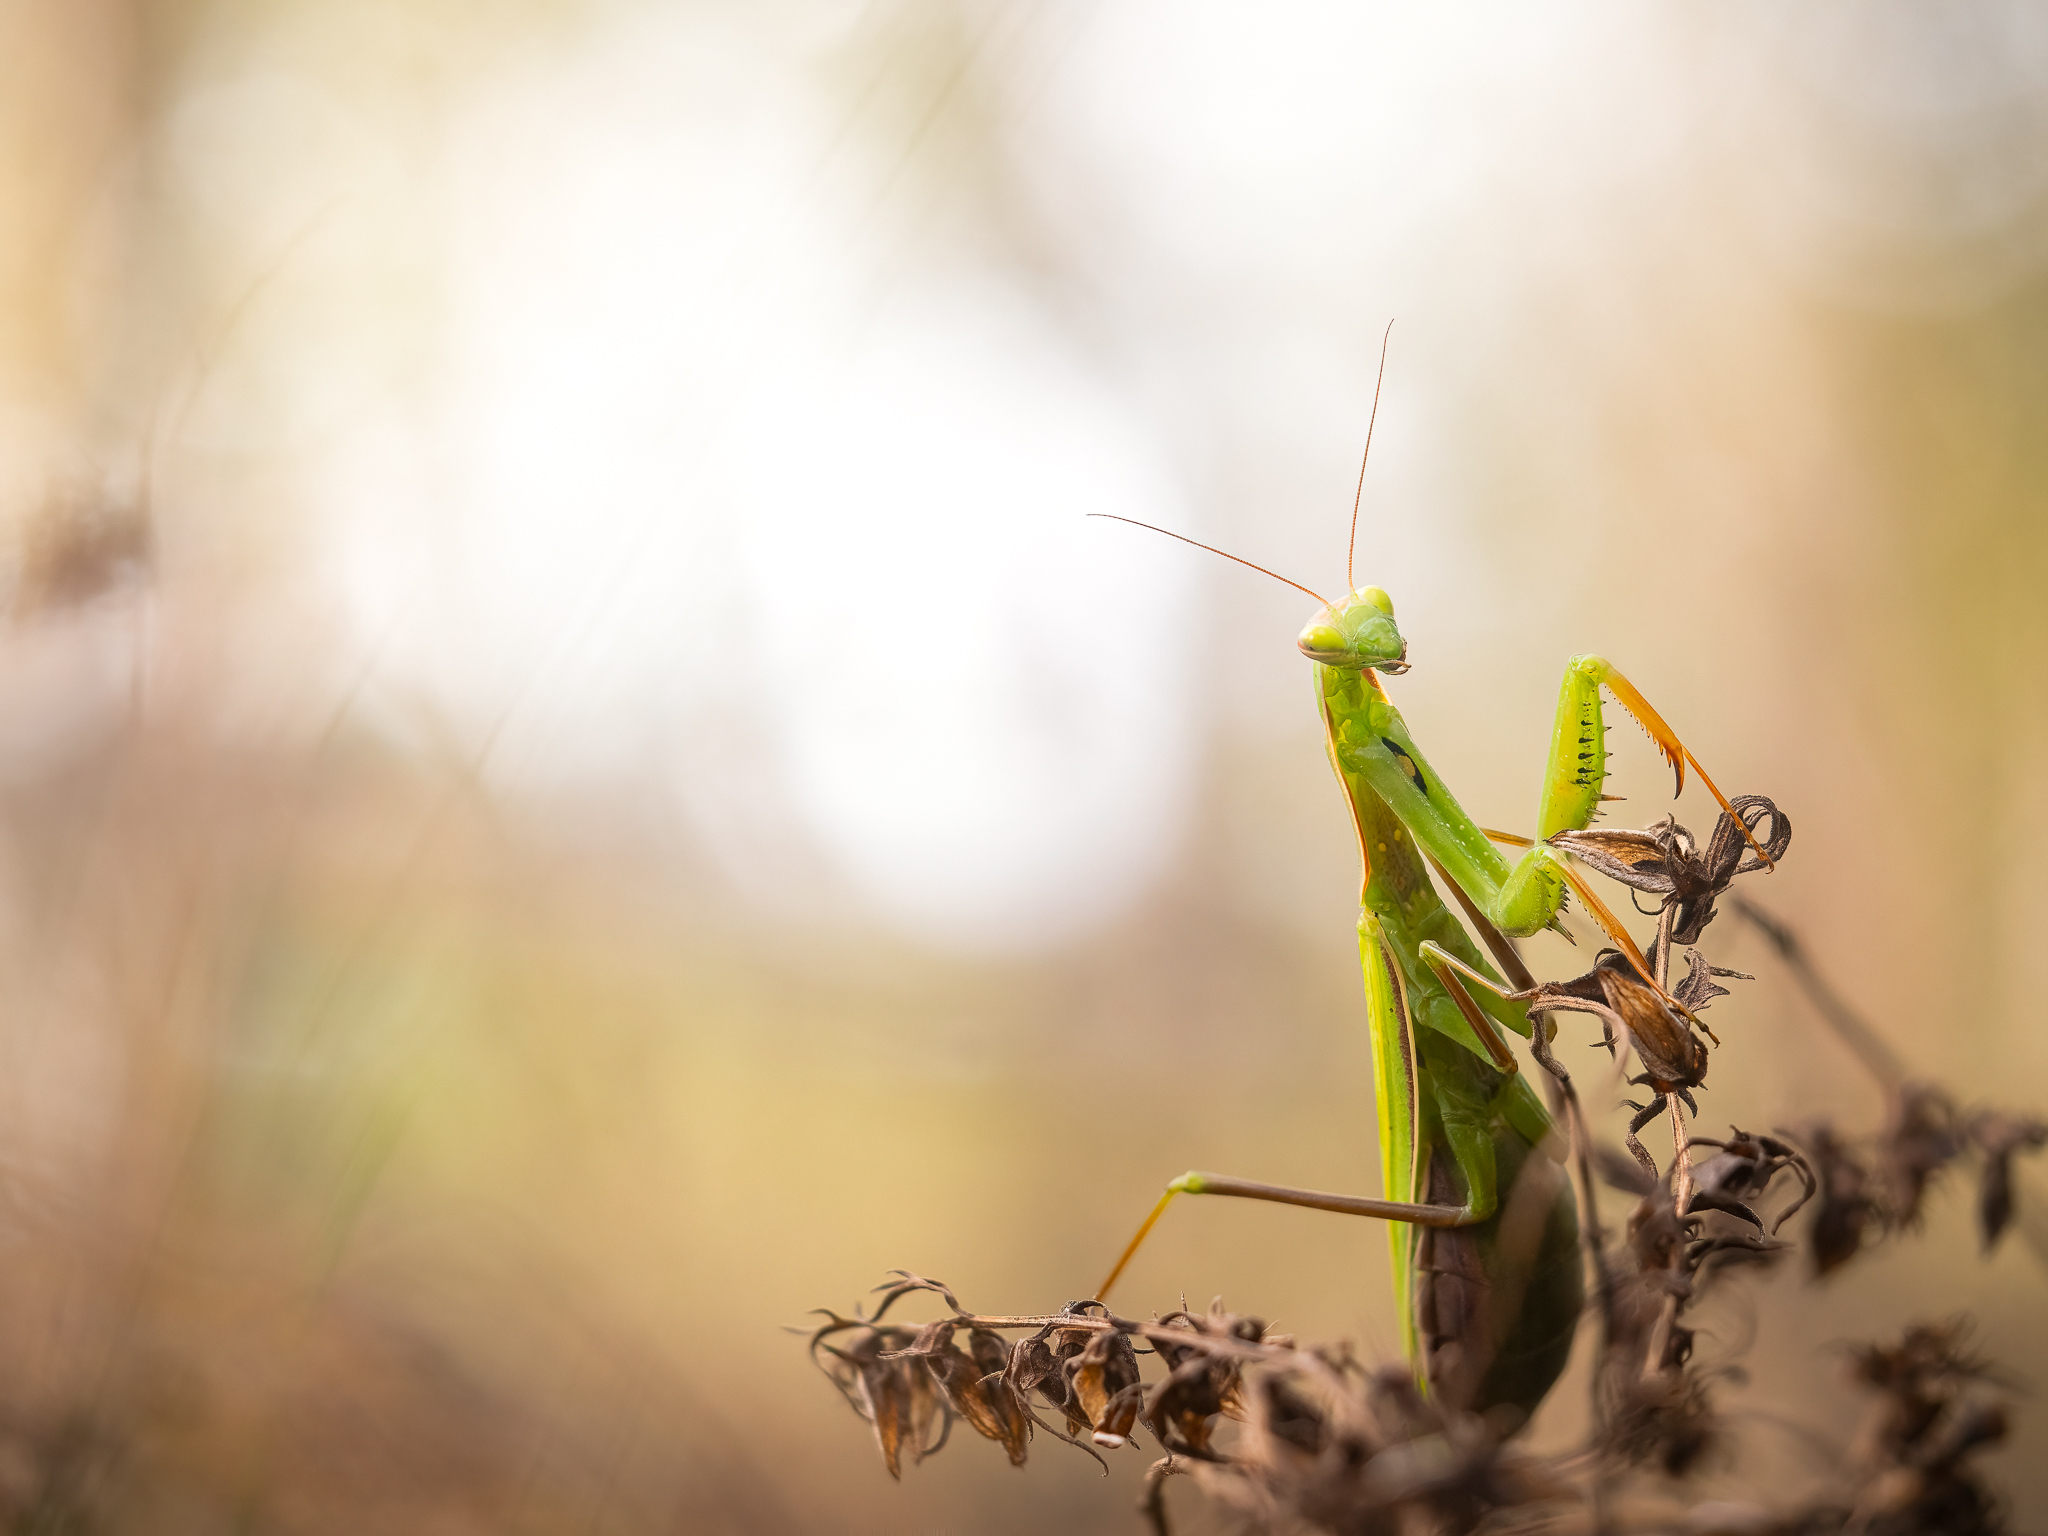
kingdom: Animalia
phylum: Arthropoda
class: Insecta
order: Mantodea
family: Mantidae
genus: Mantis
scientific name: Mantis religiosa
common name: Praying mantis
